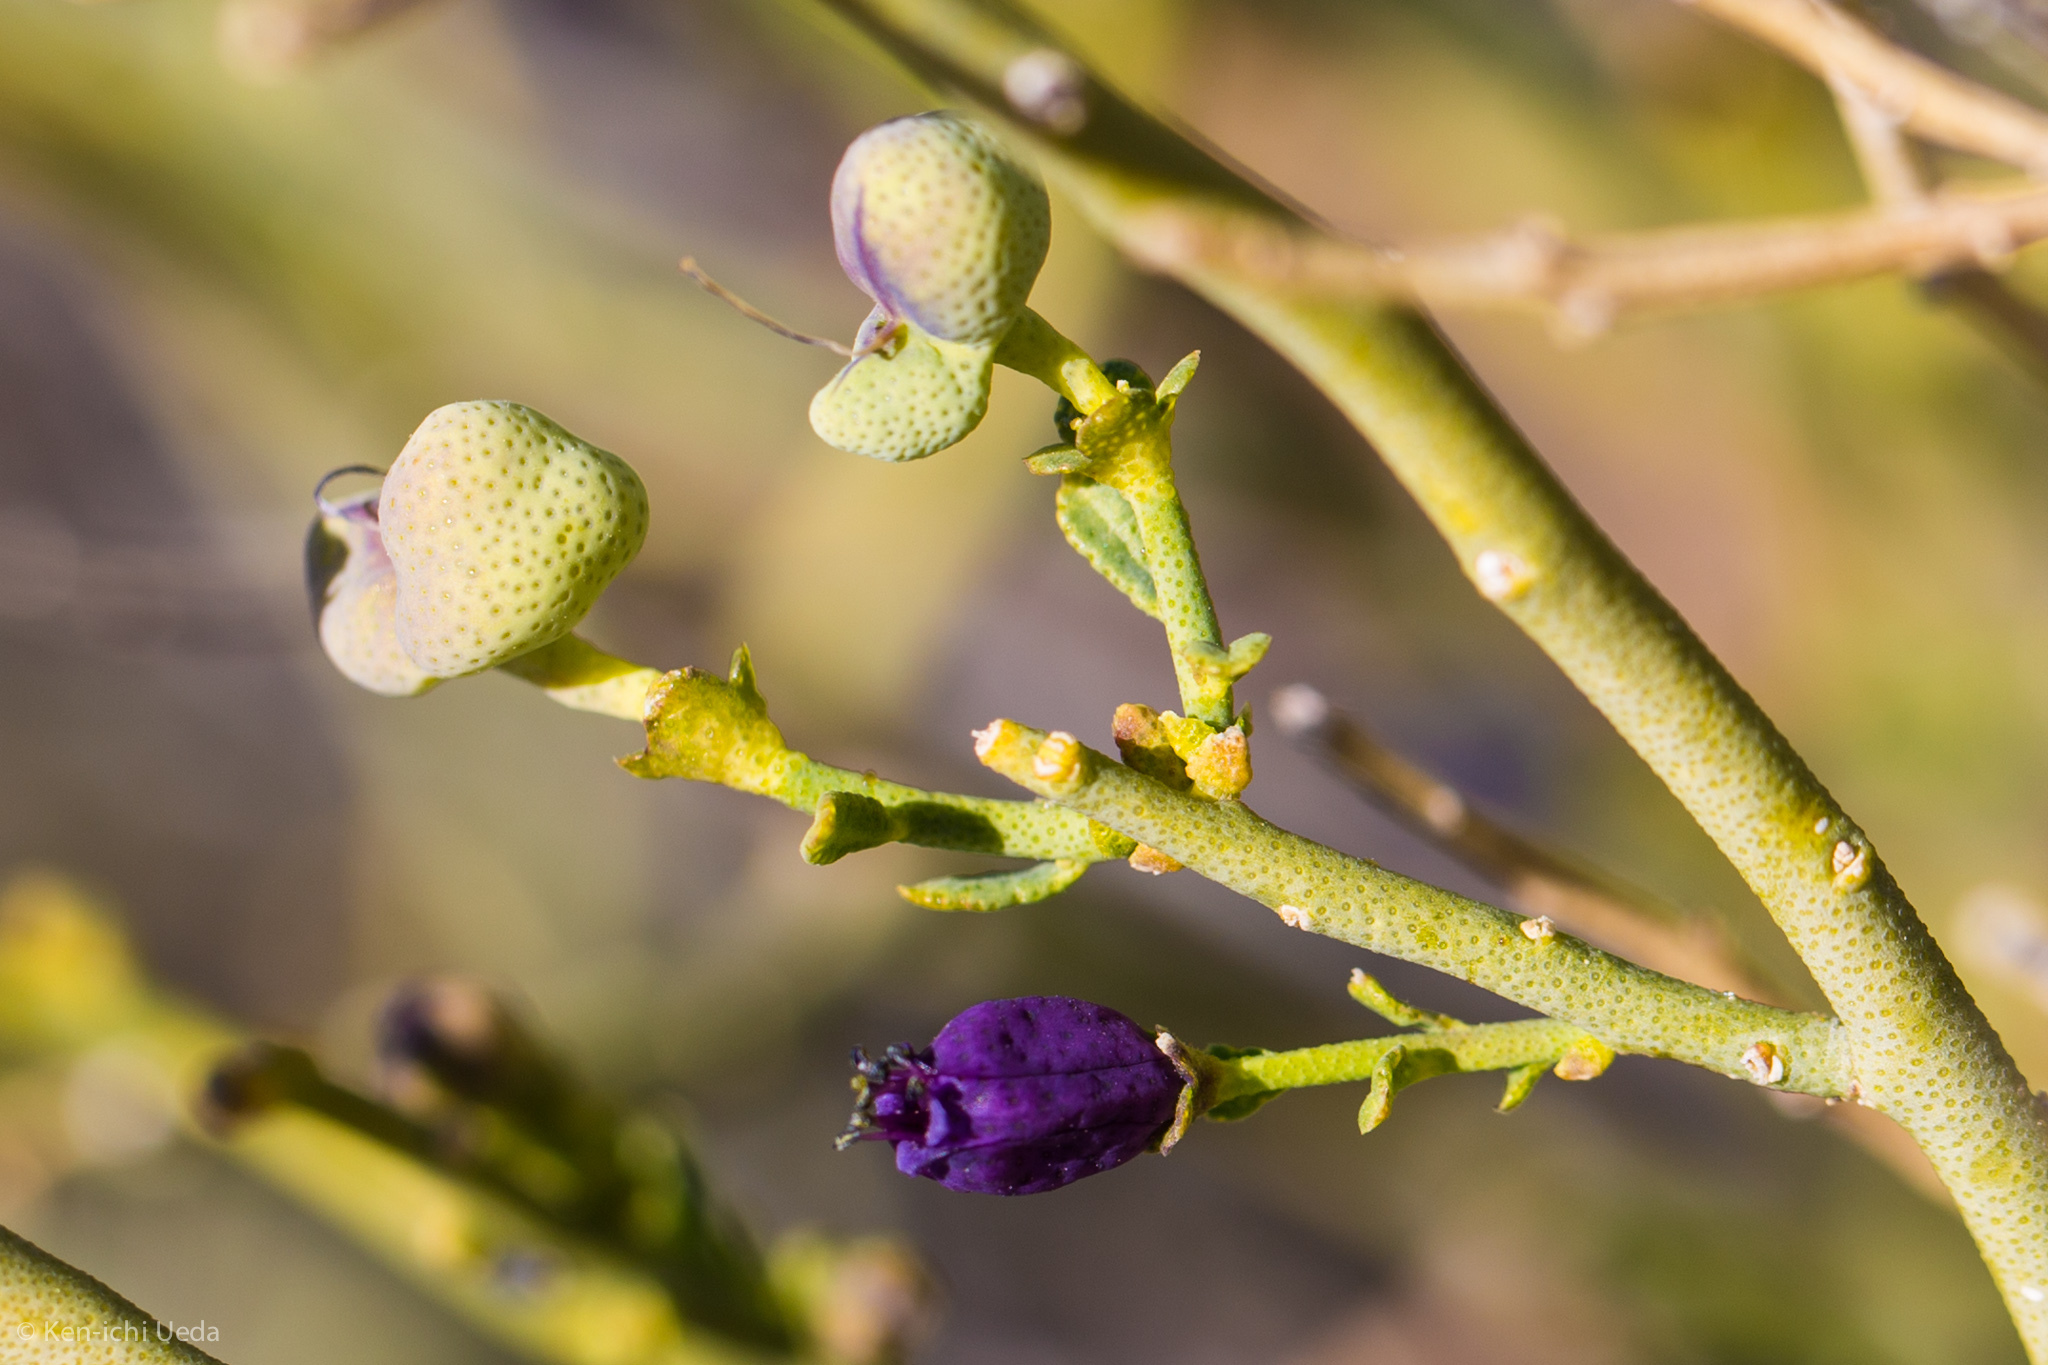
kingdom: Plantae
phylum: Tracheophyta
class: Magnoliopsida
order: Sapindales
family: Rutaceae
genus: Thamnosma
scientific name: Thamnosma montana
